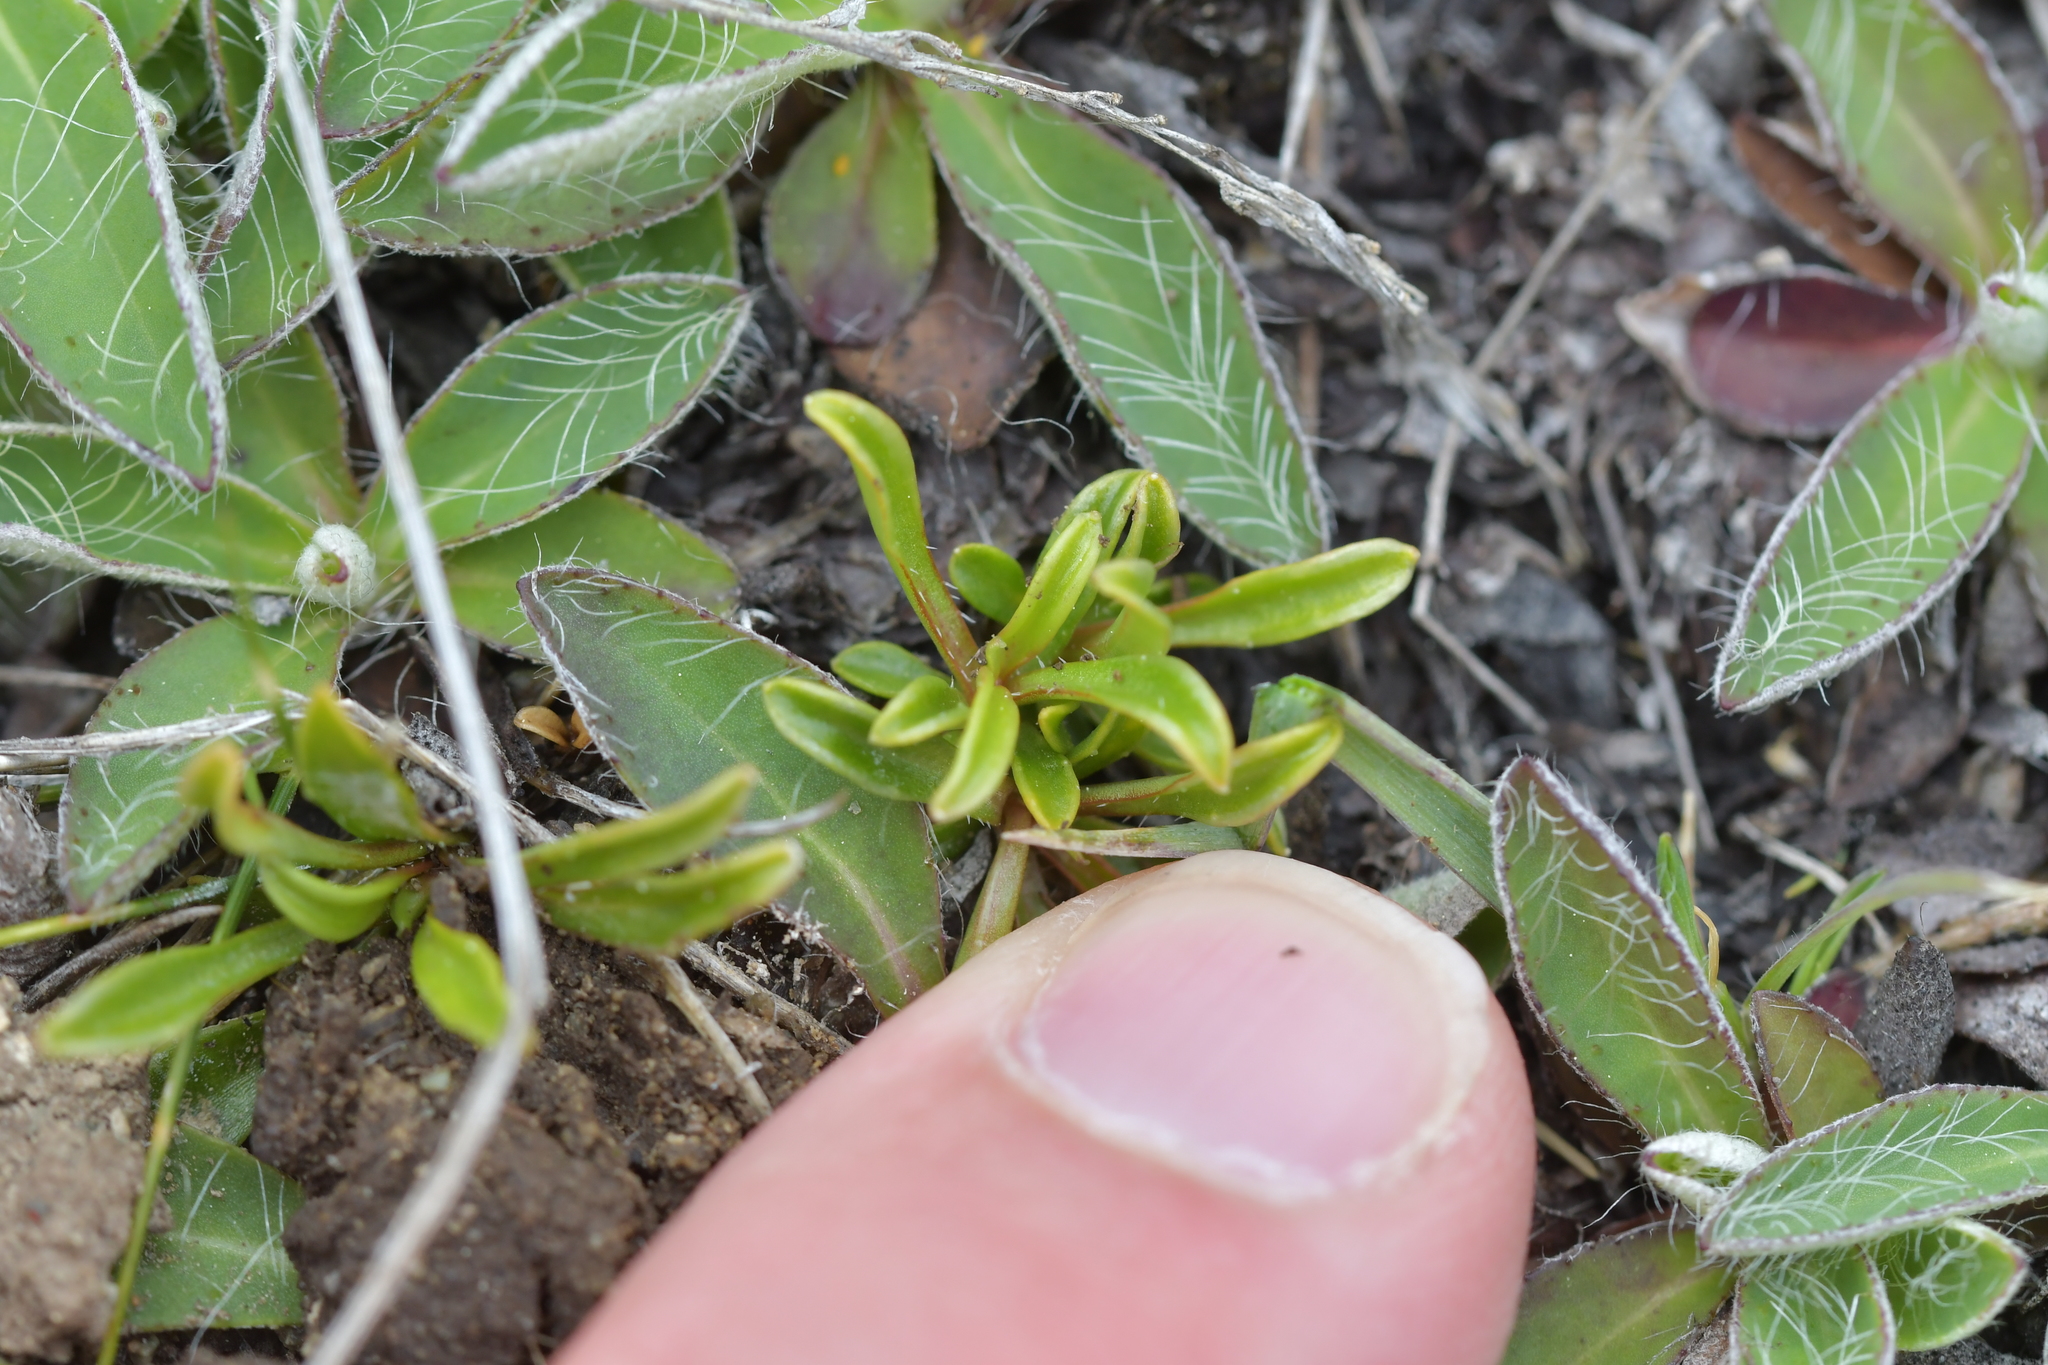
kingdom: Plantae
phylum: Tracheophyta
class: Magnoliopsida
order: Asterales
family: Campanulaceae
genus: Wahlenbergia
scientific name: Wahlenbergia albomarginata
